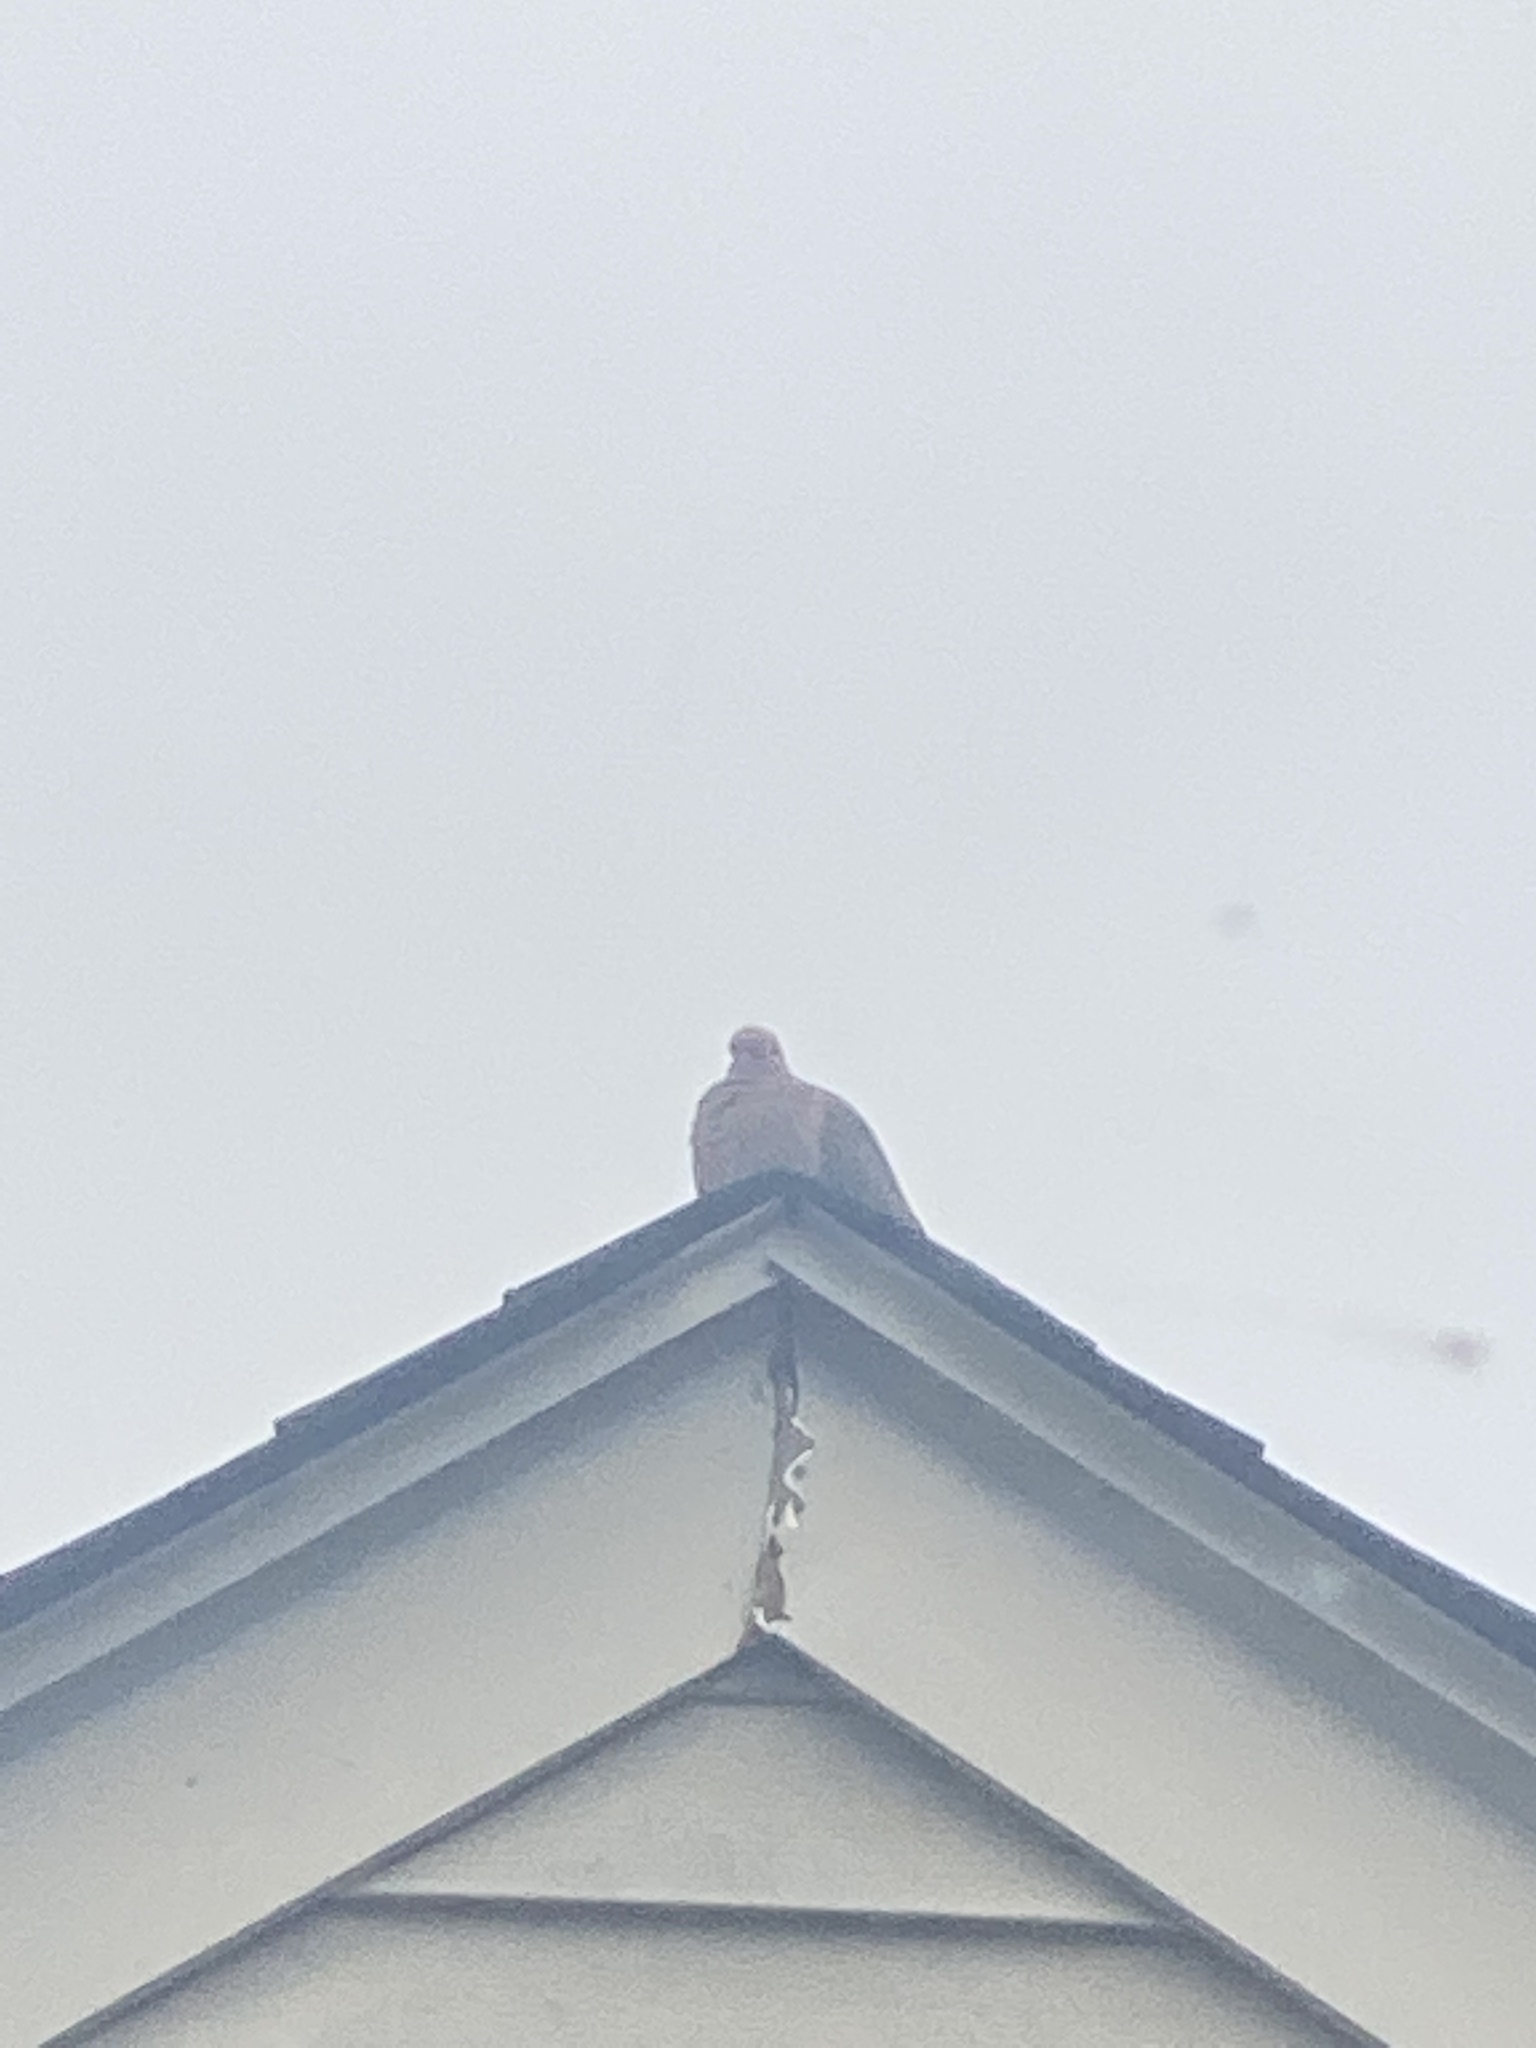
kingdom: Animalia
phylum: Chordata
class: Aves
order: Columbiformes
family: Columbidae
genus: Zenaida
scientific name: Zenaida macroura
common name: Mourning dove
